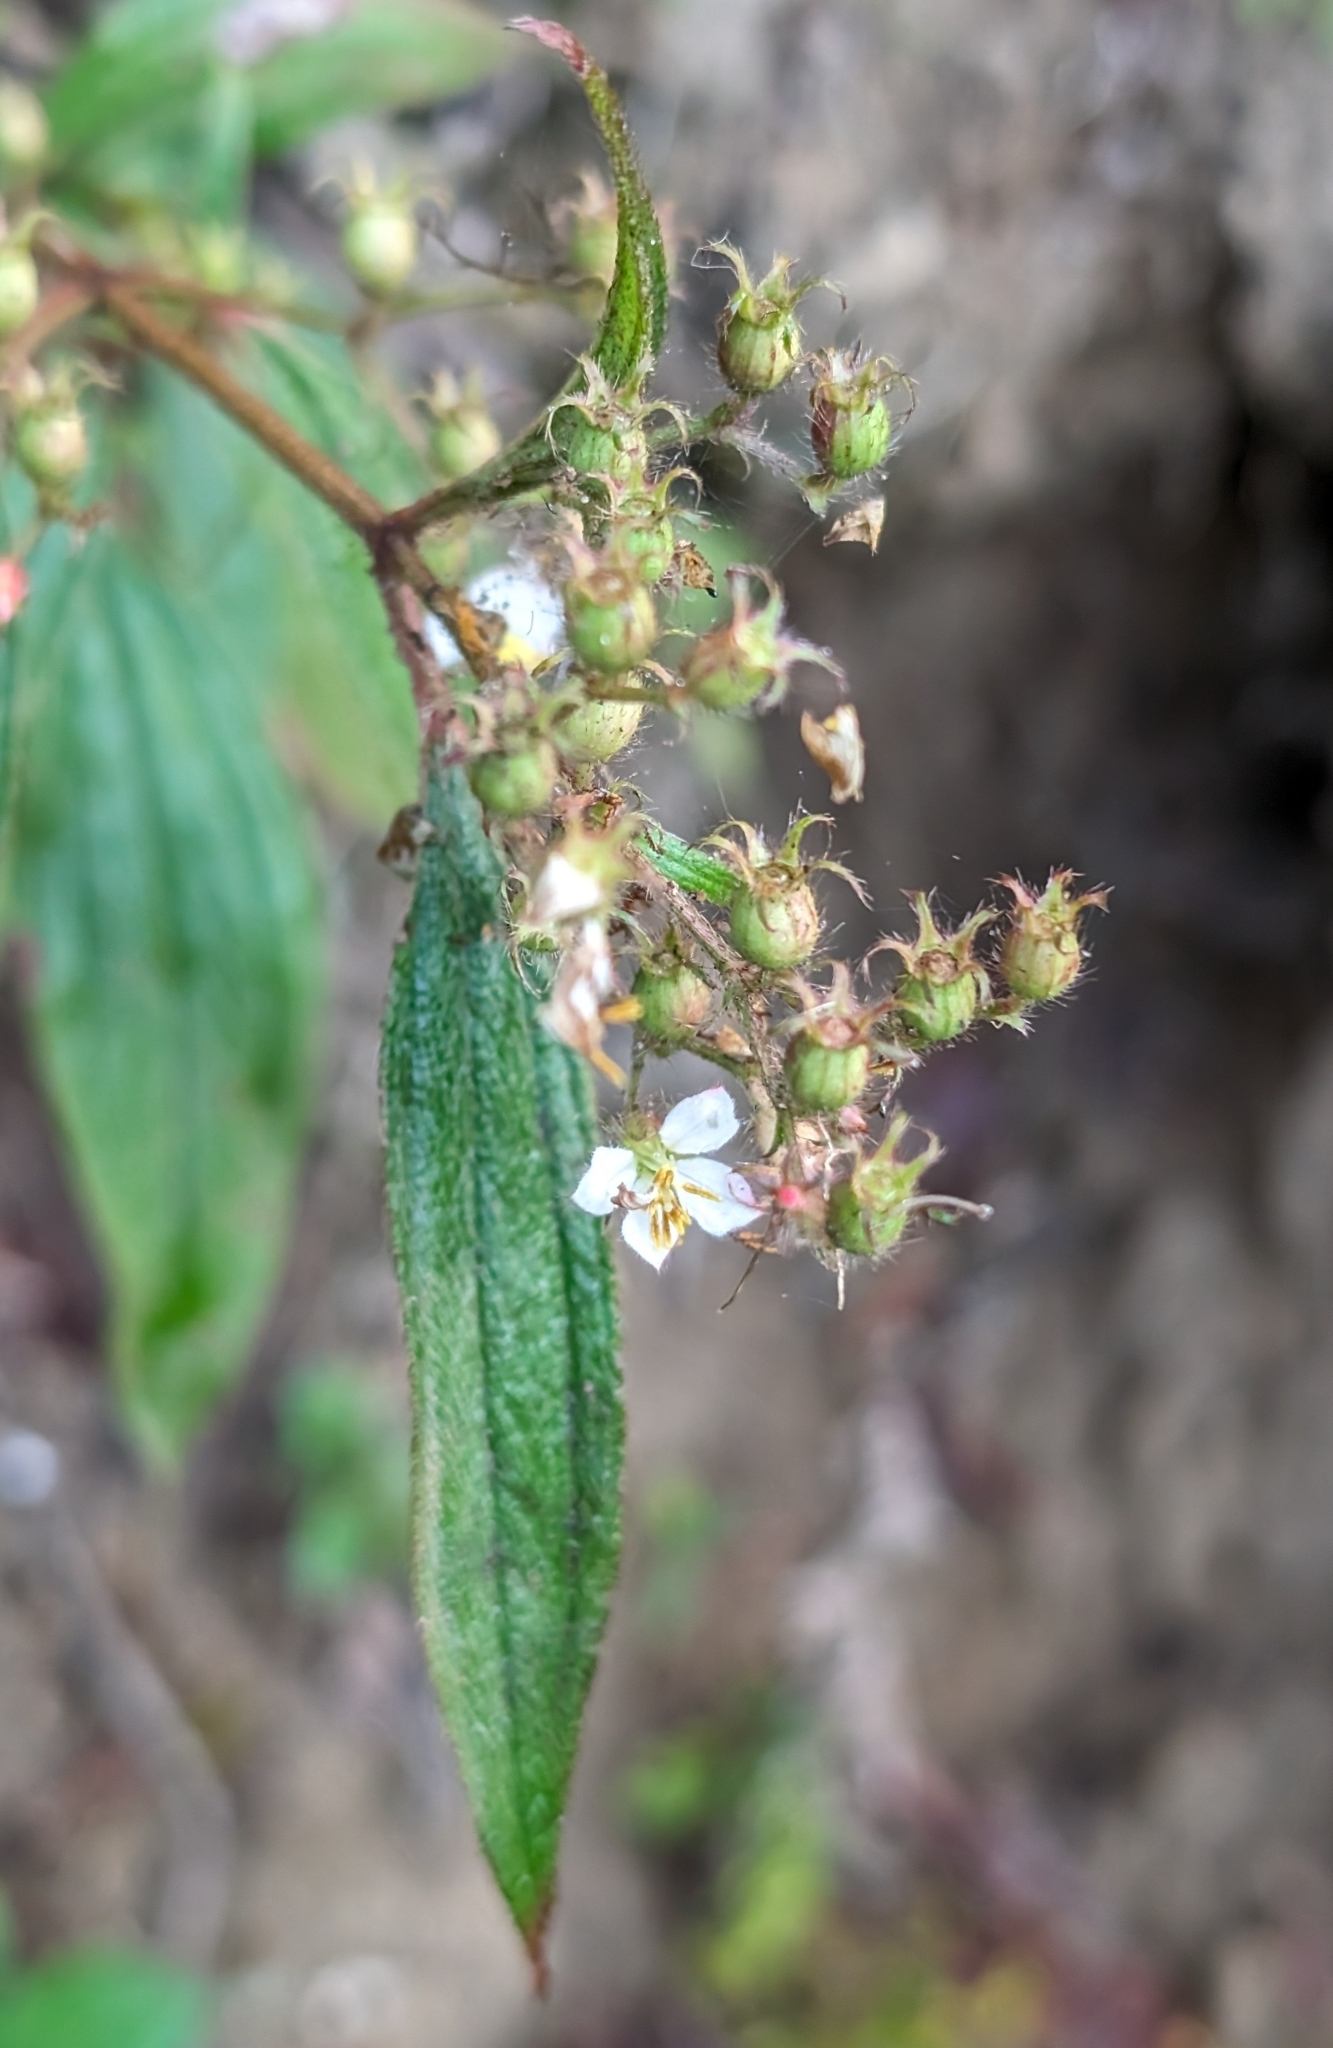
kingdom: Plantae
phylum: Tracheophyta
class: Magnoliopsida
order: Myrtales
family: Melastomataceae
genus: Chaetogastra
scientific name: Chaetogastra longifolia
